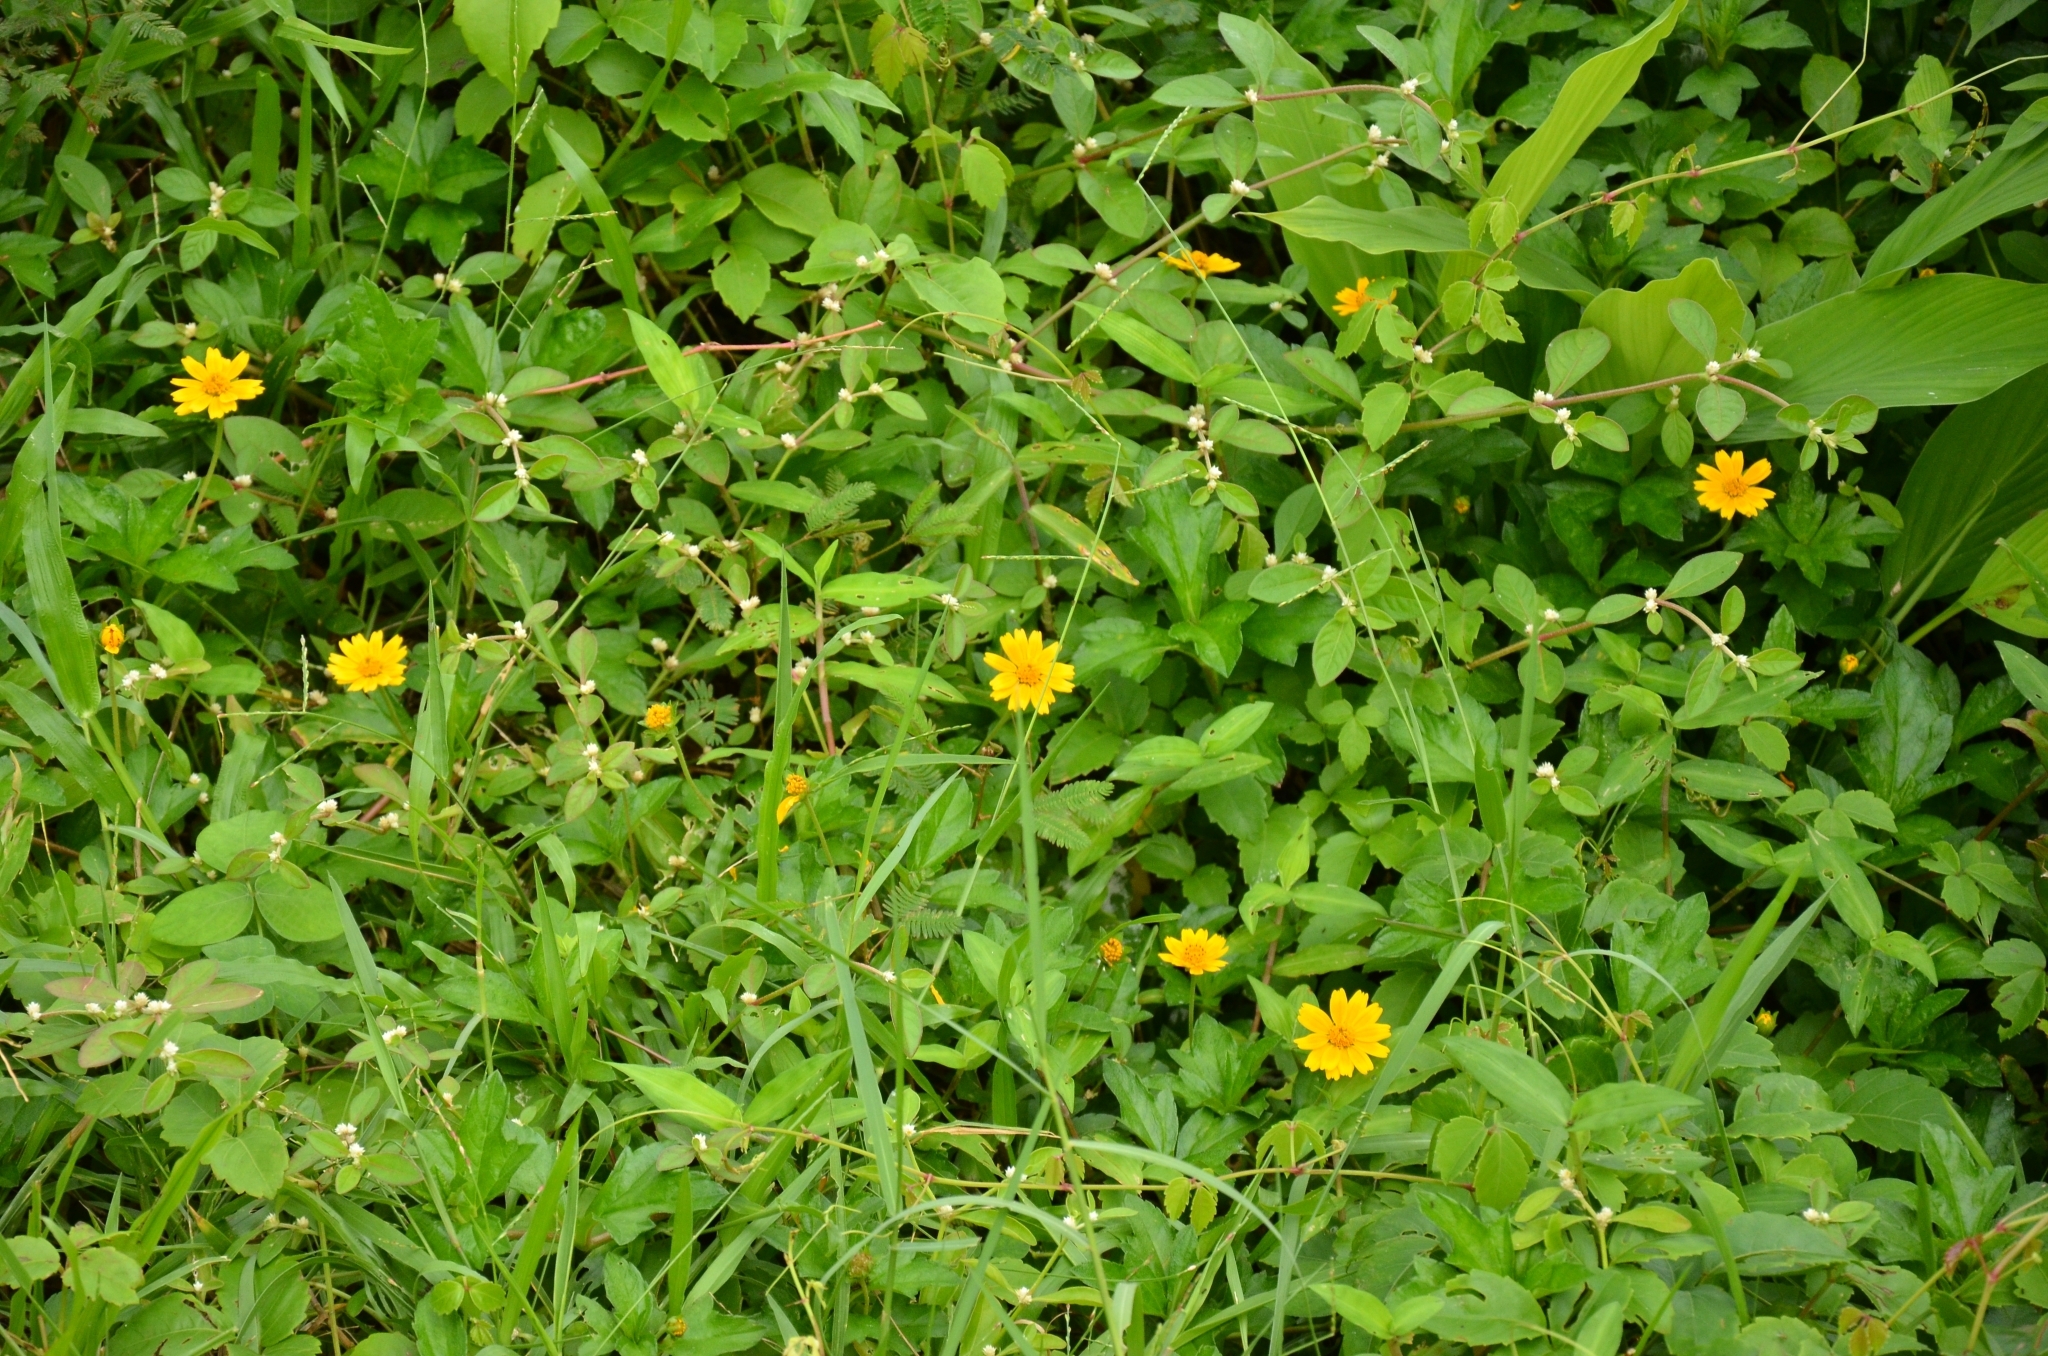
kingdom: Plantae
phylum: Tracheophyta
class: Magnoliopsida
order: Asterales
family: Asteraceae
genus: Sphagneticola
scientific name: Sphagneticola trilobata
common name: Bay biscayne creeping-oxeye
